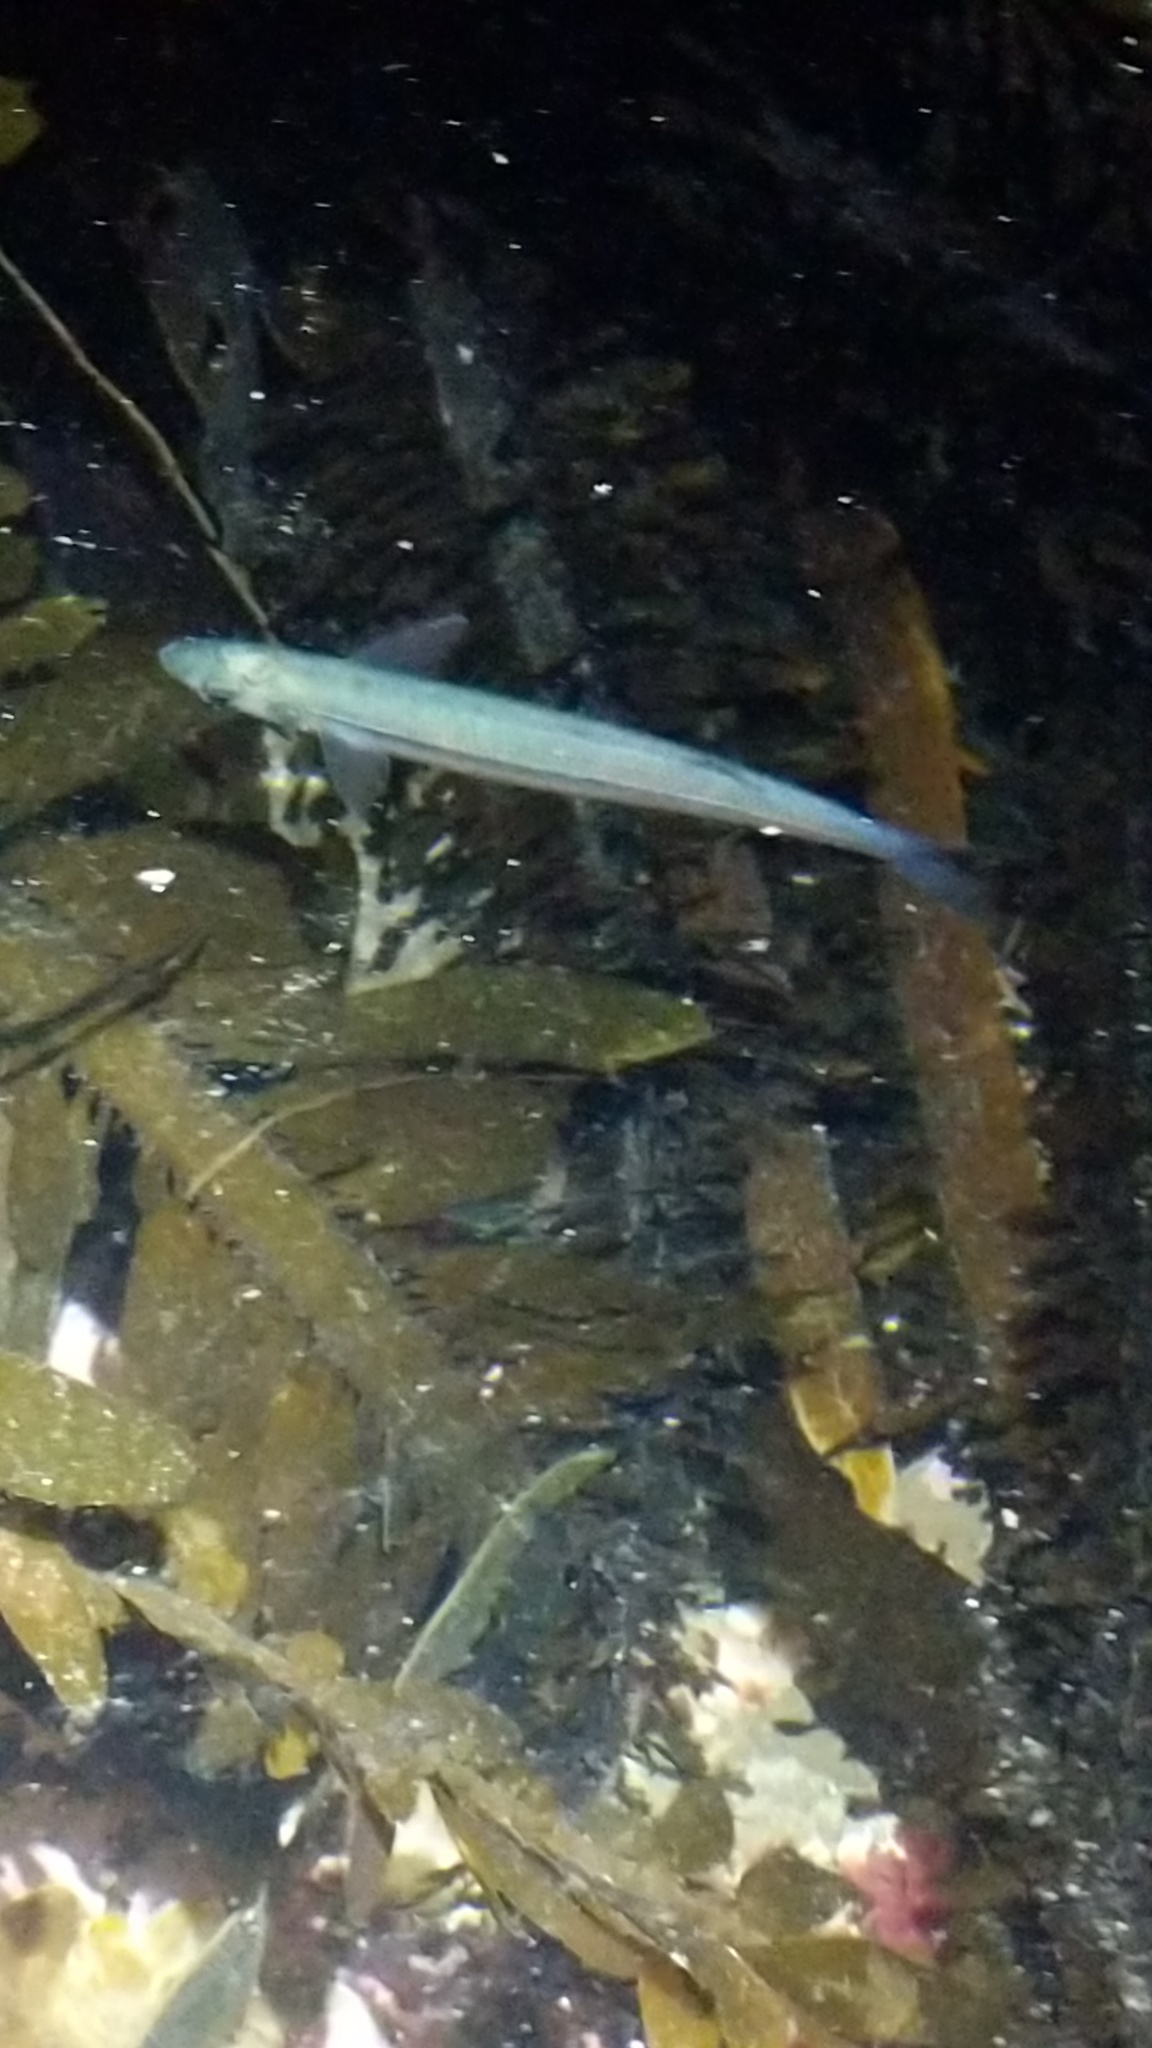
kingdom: Animalia
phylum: Chordata
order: Atheriniformes
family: Atherinopsidae
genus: Atherinops
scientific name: Atherinops affinis
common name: Topsmelt
